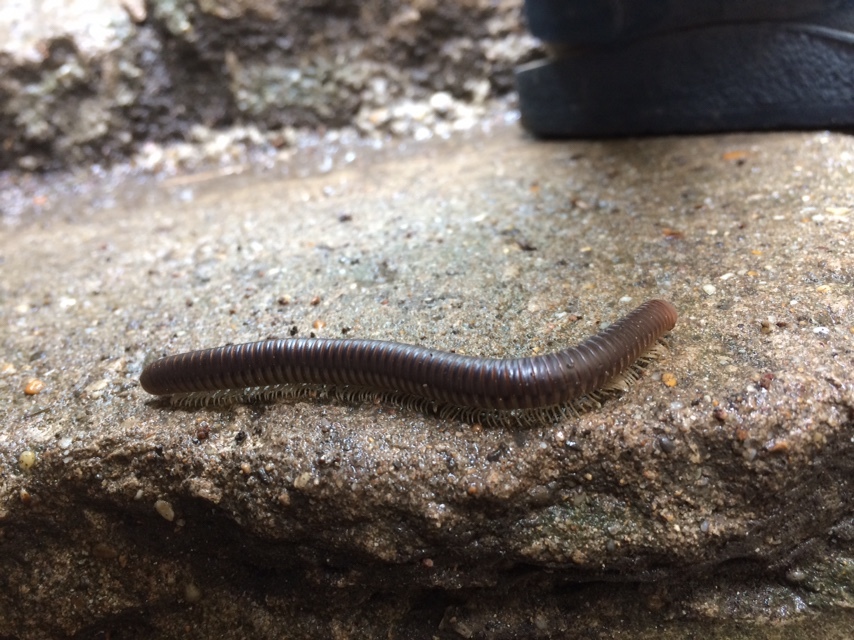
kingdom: Animalia
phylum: Arthropoda
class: Diplopoda
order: Julida
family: Julidae
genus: Pachyiulus
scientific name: Pachyiulus flavipes
